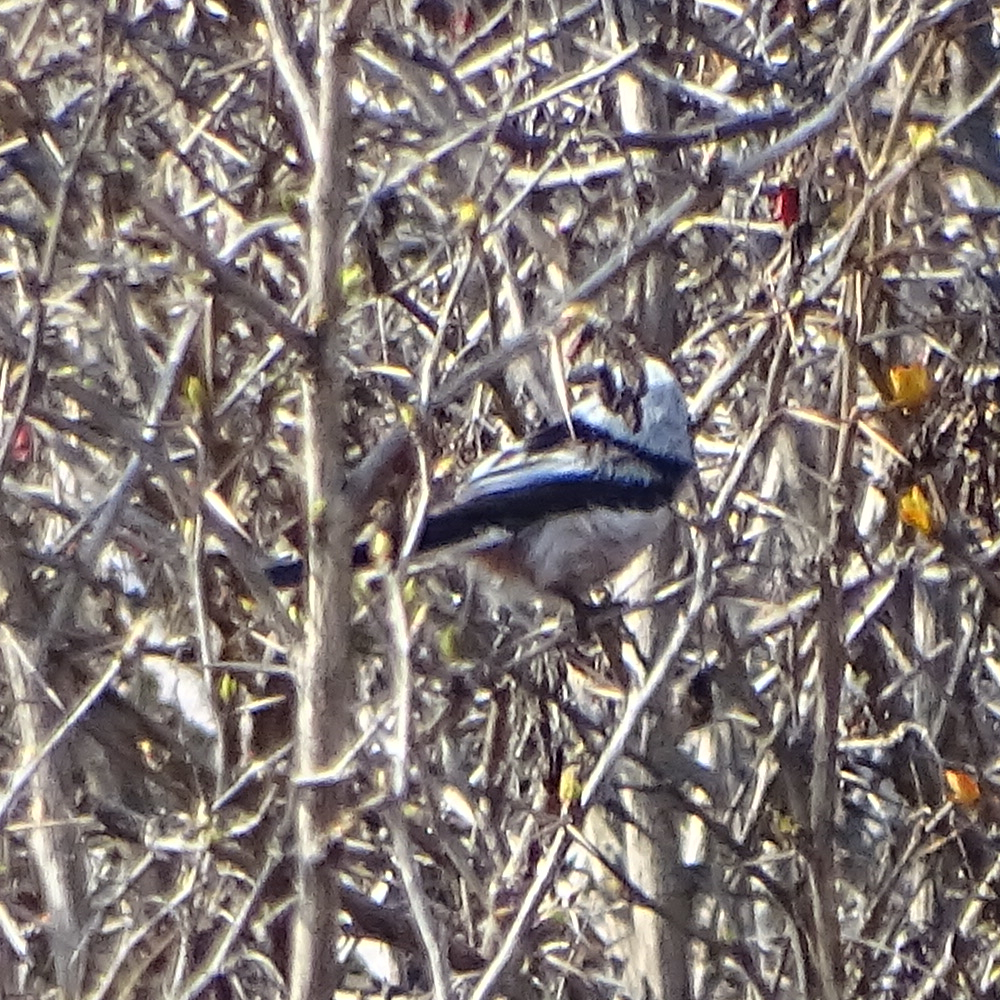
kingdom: Animalia
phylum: Chordata
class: Aves
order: Passeriformes
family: Aegithalidae
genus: Aegithalos
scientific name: Aegithalos caudatus
